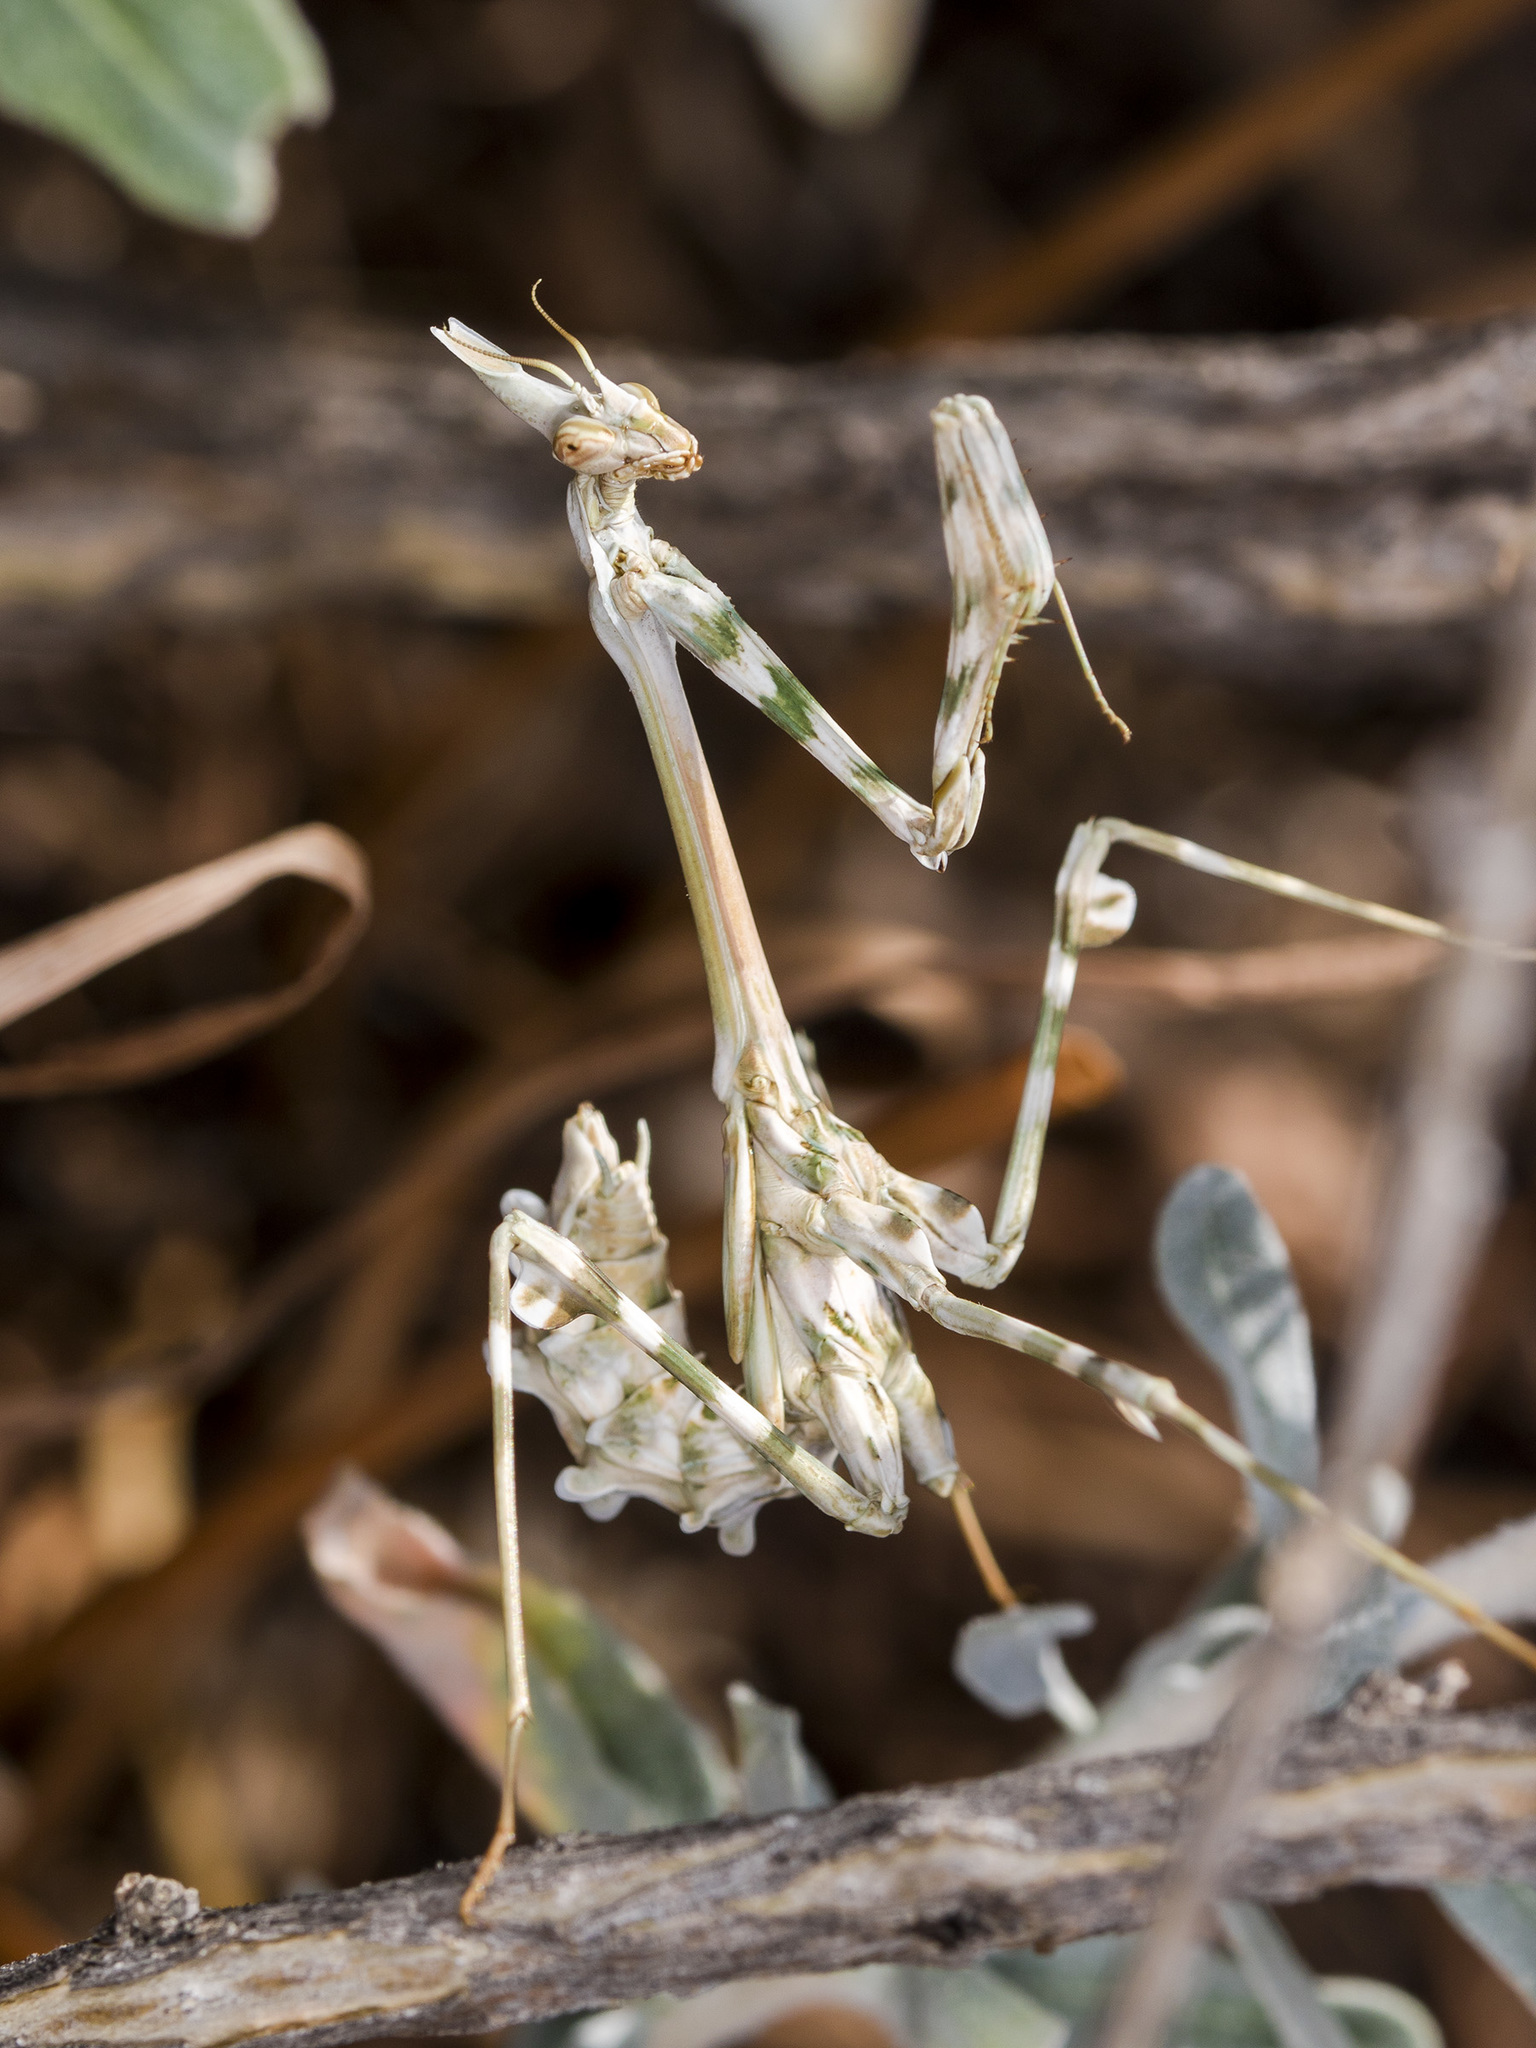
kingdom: Animalia
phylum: Arthropoda
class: Insecta
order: Mantodea
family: Empusidae
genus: Empusa
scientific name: Empusa pennicornis
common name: Conehead mantis
